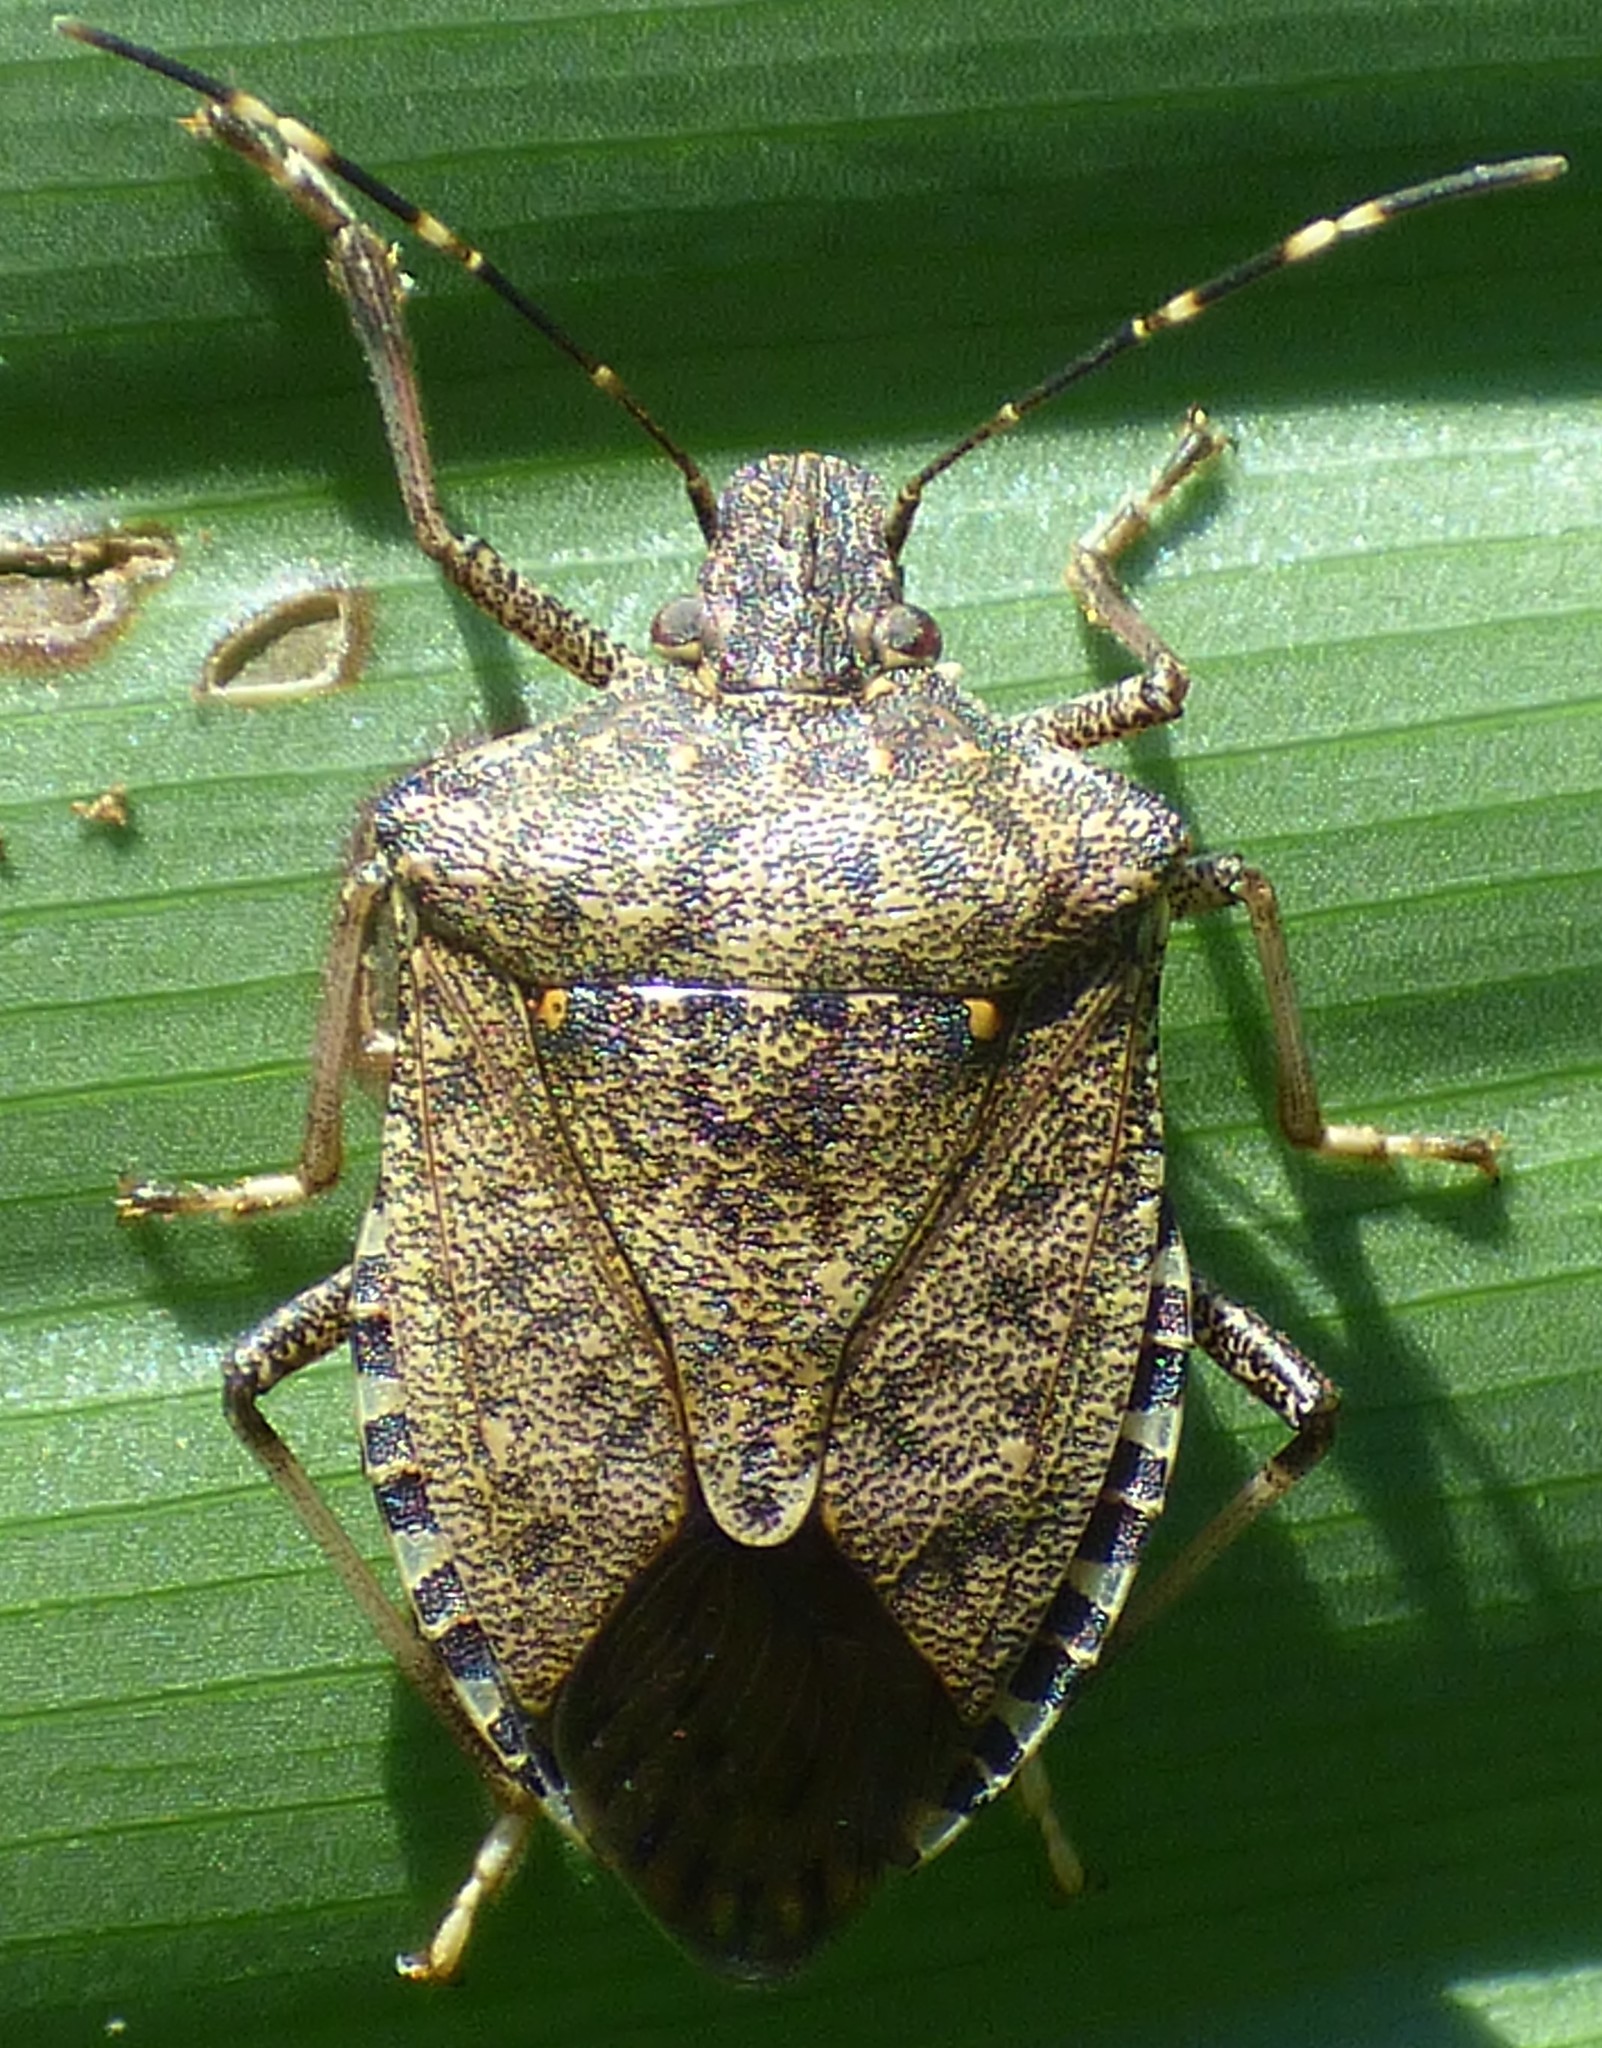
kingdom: Animalia
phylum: Arthropoda
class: Insecta
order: Hemiptera
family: Pentatomidae
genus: Halyomorpha
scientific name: Halyomorpha halys
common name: Brown marmorated stink bug
